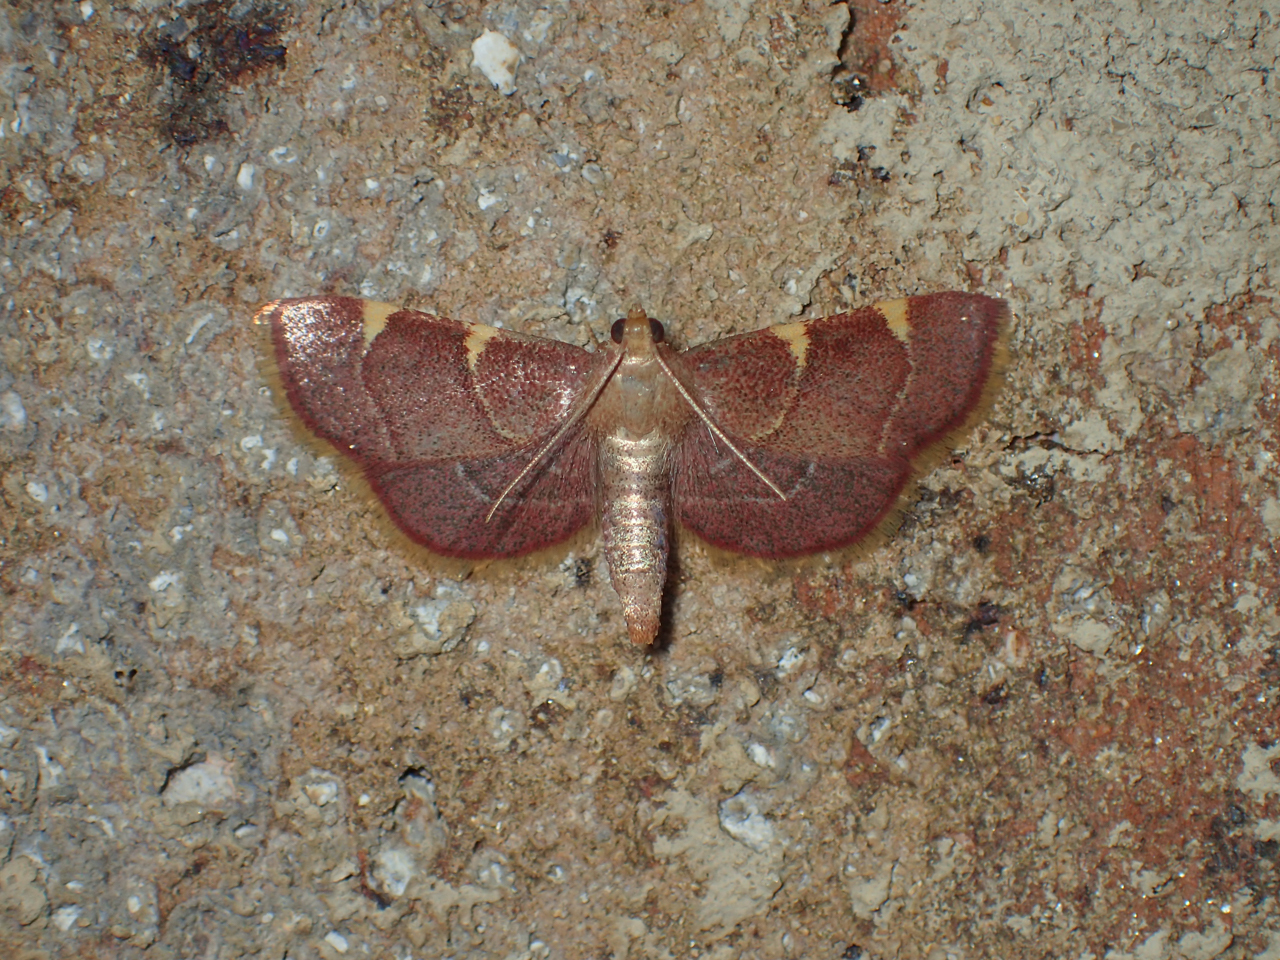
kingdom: Animalia
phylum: Arthropoda
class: Insecta
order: Lepidoptera
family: Pyralidae
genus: Hypsopygia
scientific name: Hypsopygia olinalis
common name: Yellow-fringed dolichomia moth
